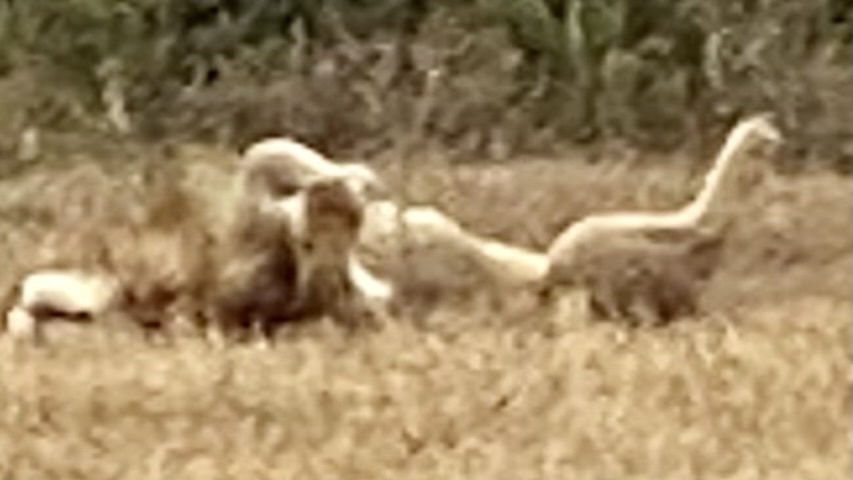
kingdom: Animalia
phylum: Chordata
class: Mammalia
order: Carnivora
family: Felidae
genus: Panthera
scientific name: Panthera leo
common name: Lion
